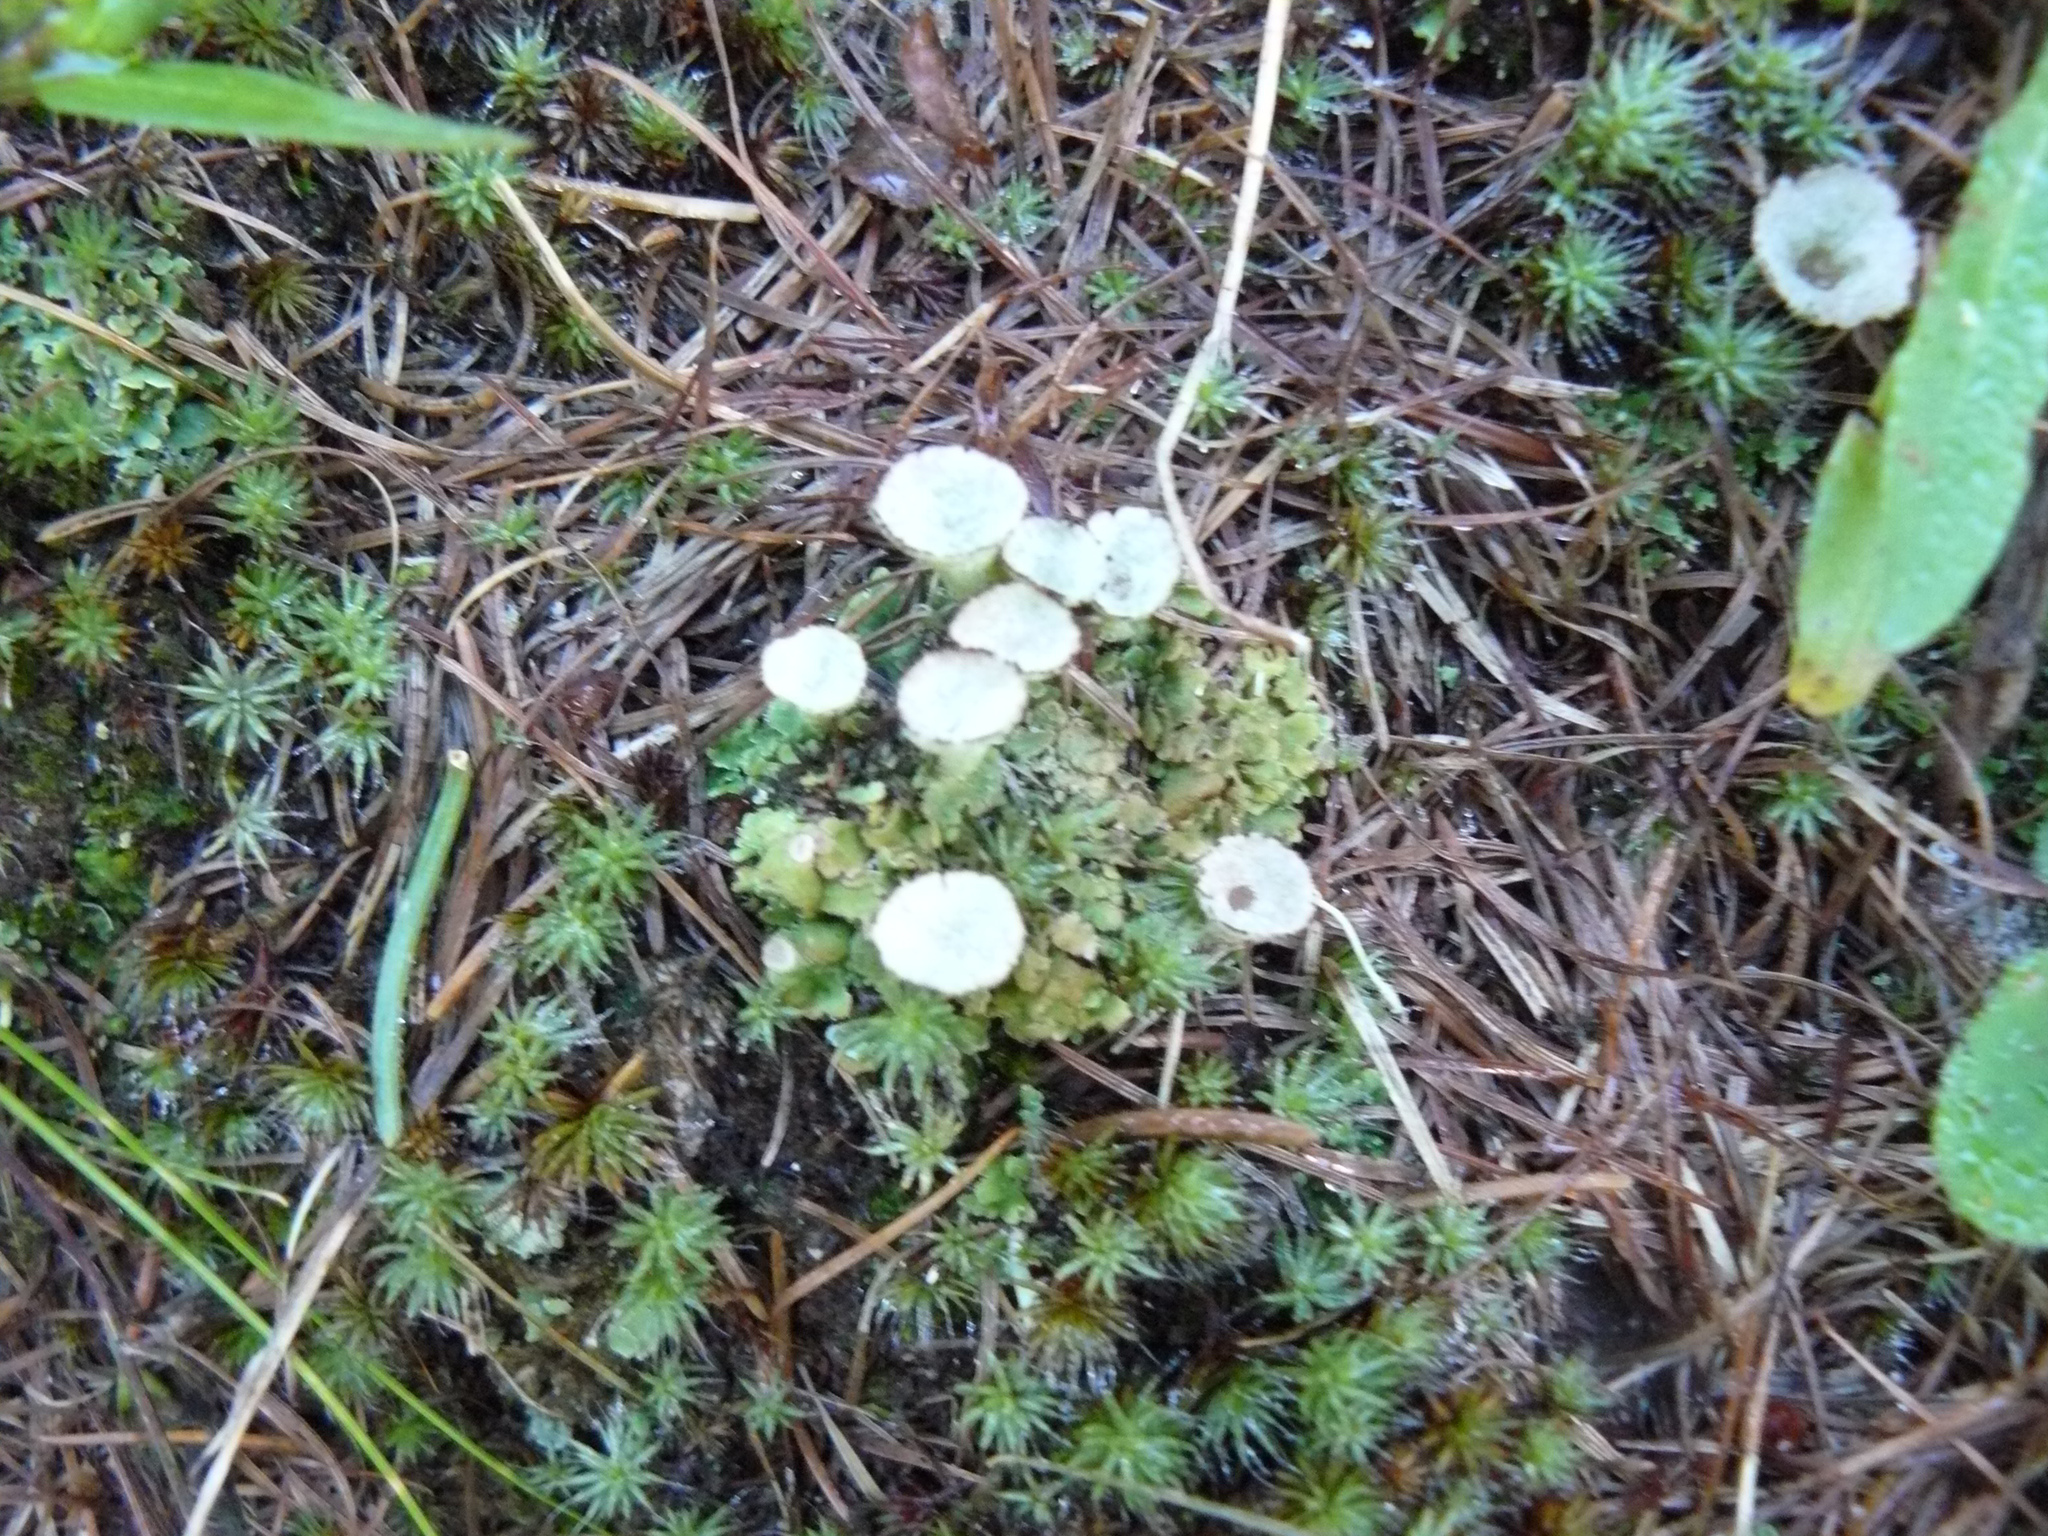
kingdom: Fungi
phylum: Ascomycota
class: Lecanoromycetes
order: Lecanorales
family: Cladoniaceae
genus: Cladonia
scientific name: Cladonia fimbriata
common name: Powdered trumpet lichen
